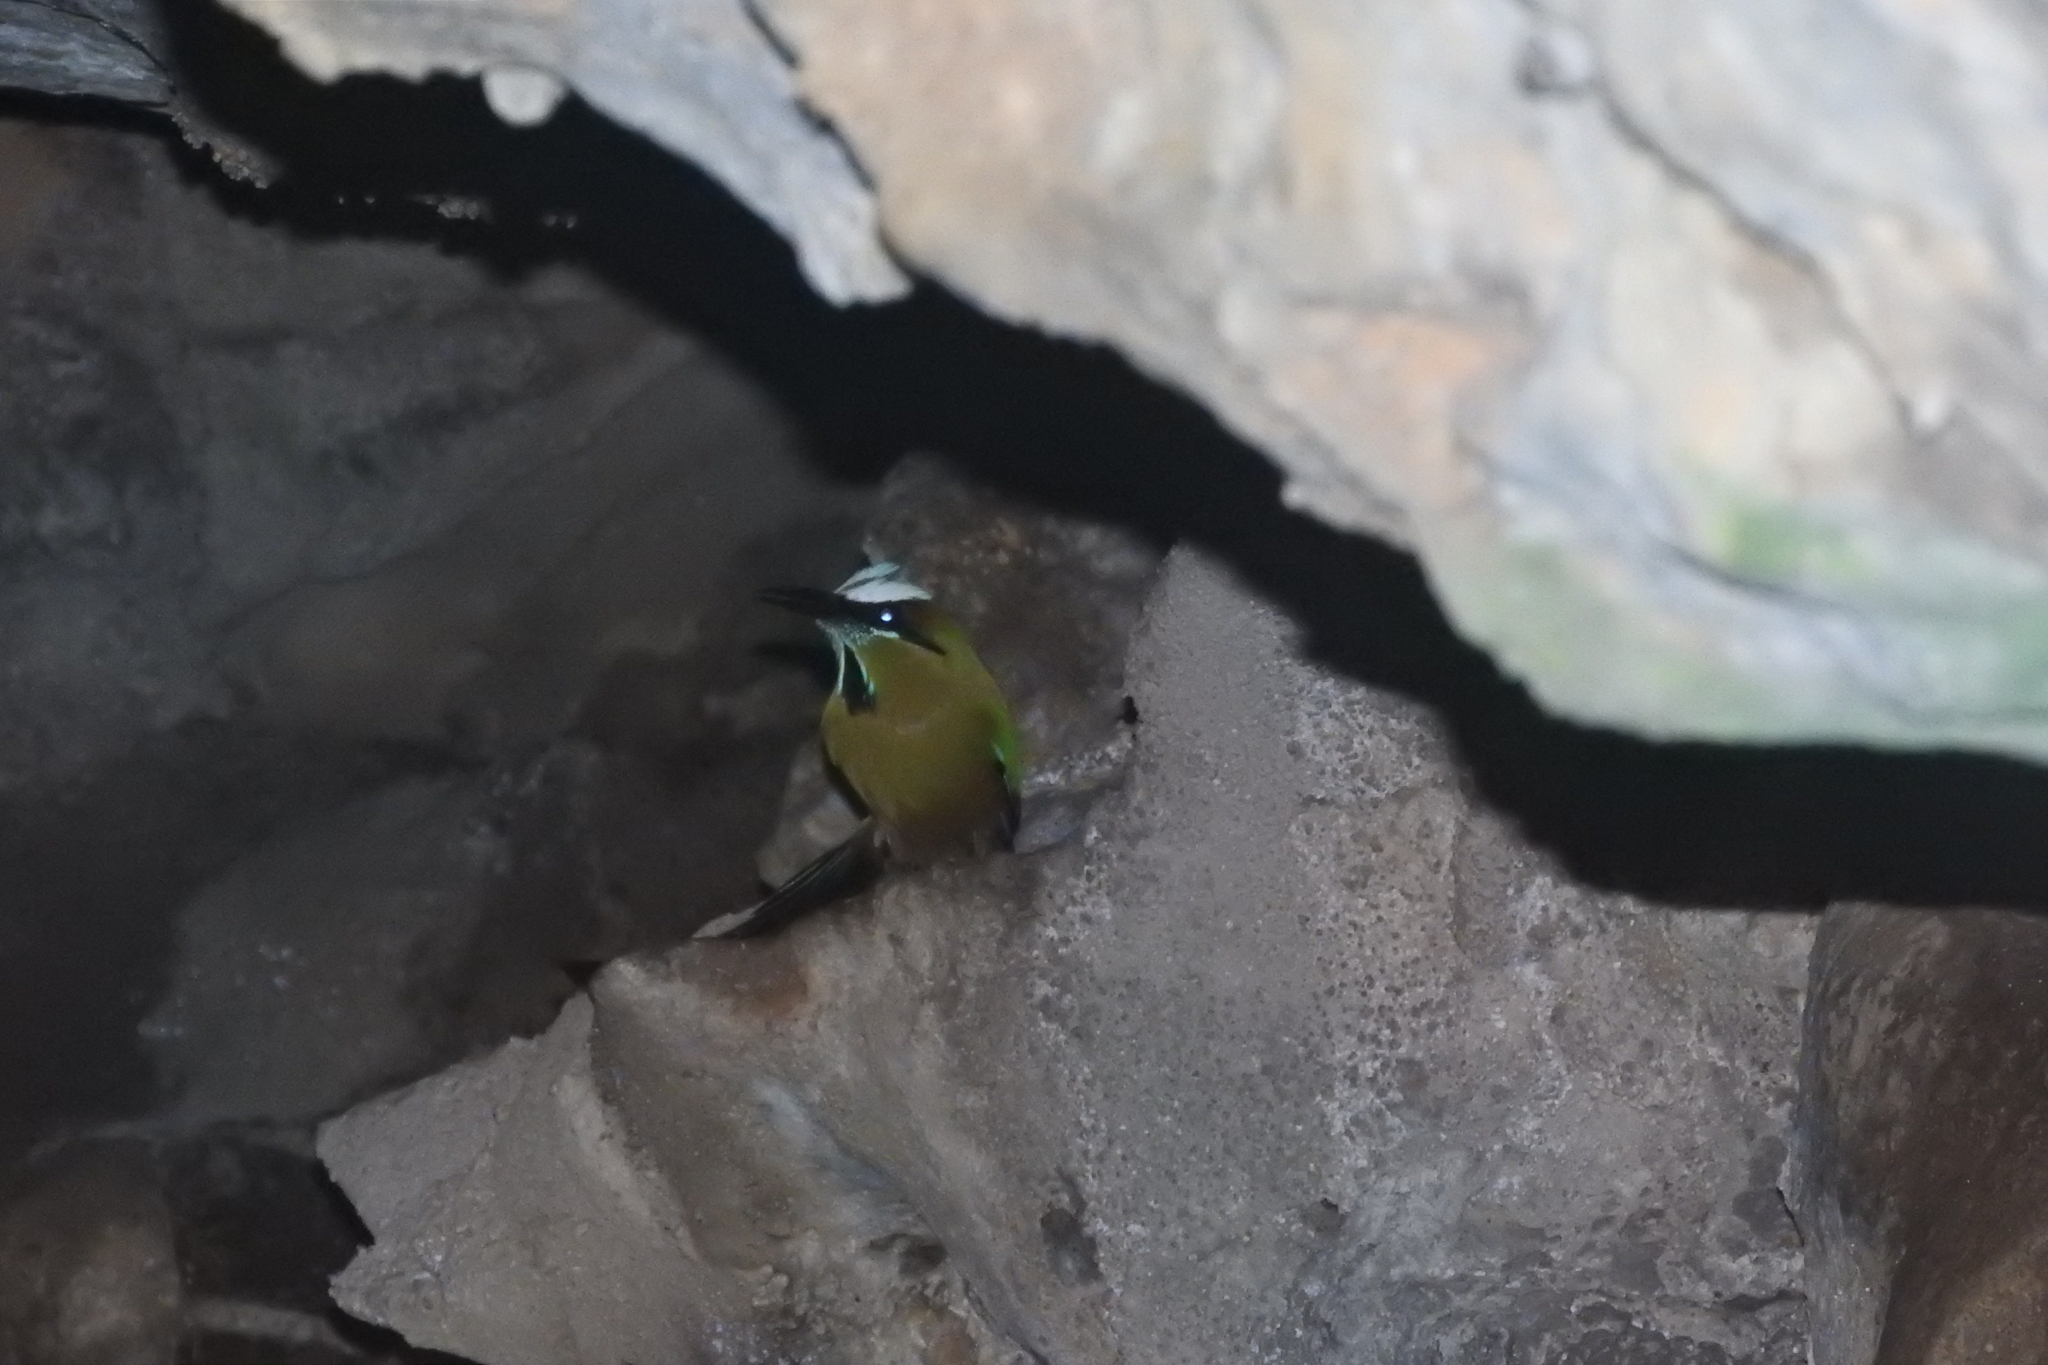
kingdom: Animalia
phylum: Chordata
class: Aves
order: Coraciiformes
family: Momotidae
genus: Eumomota
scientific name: Eumomota superciliosa
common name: Turquoise-browed motmot
